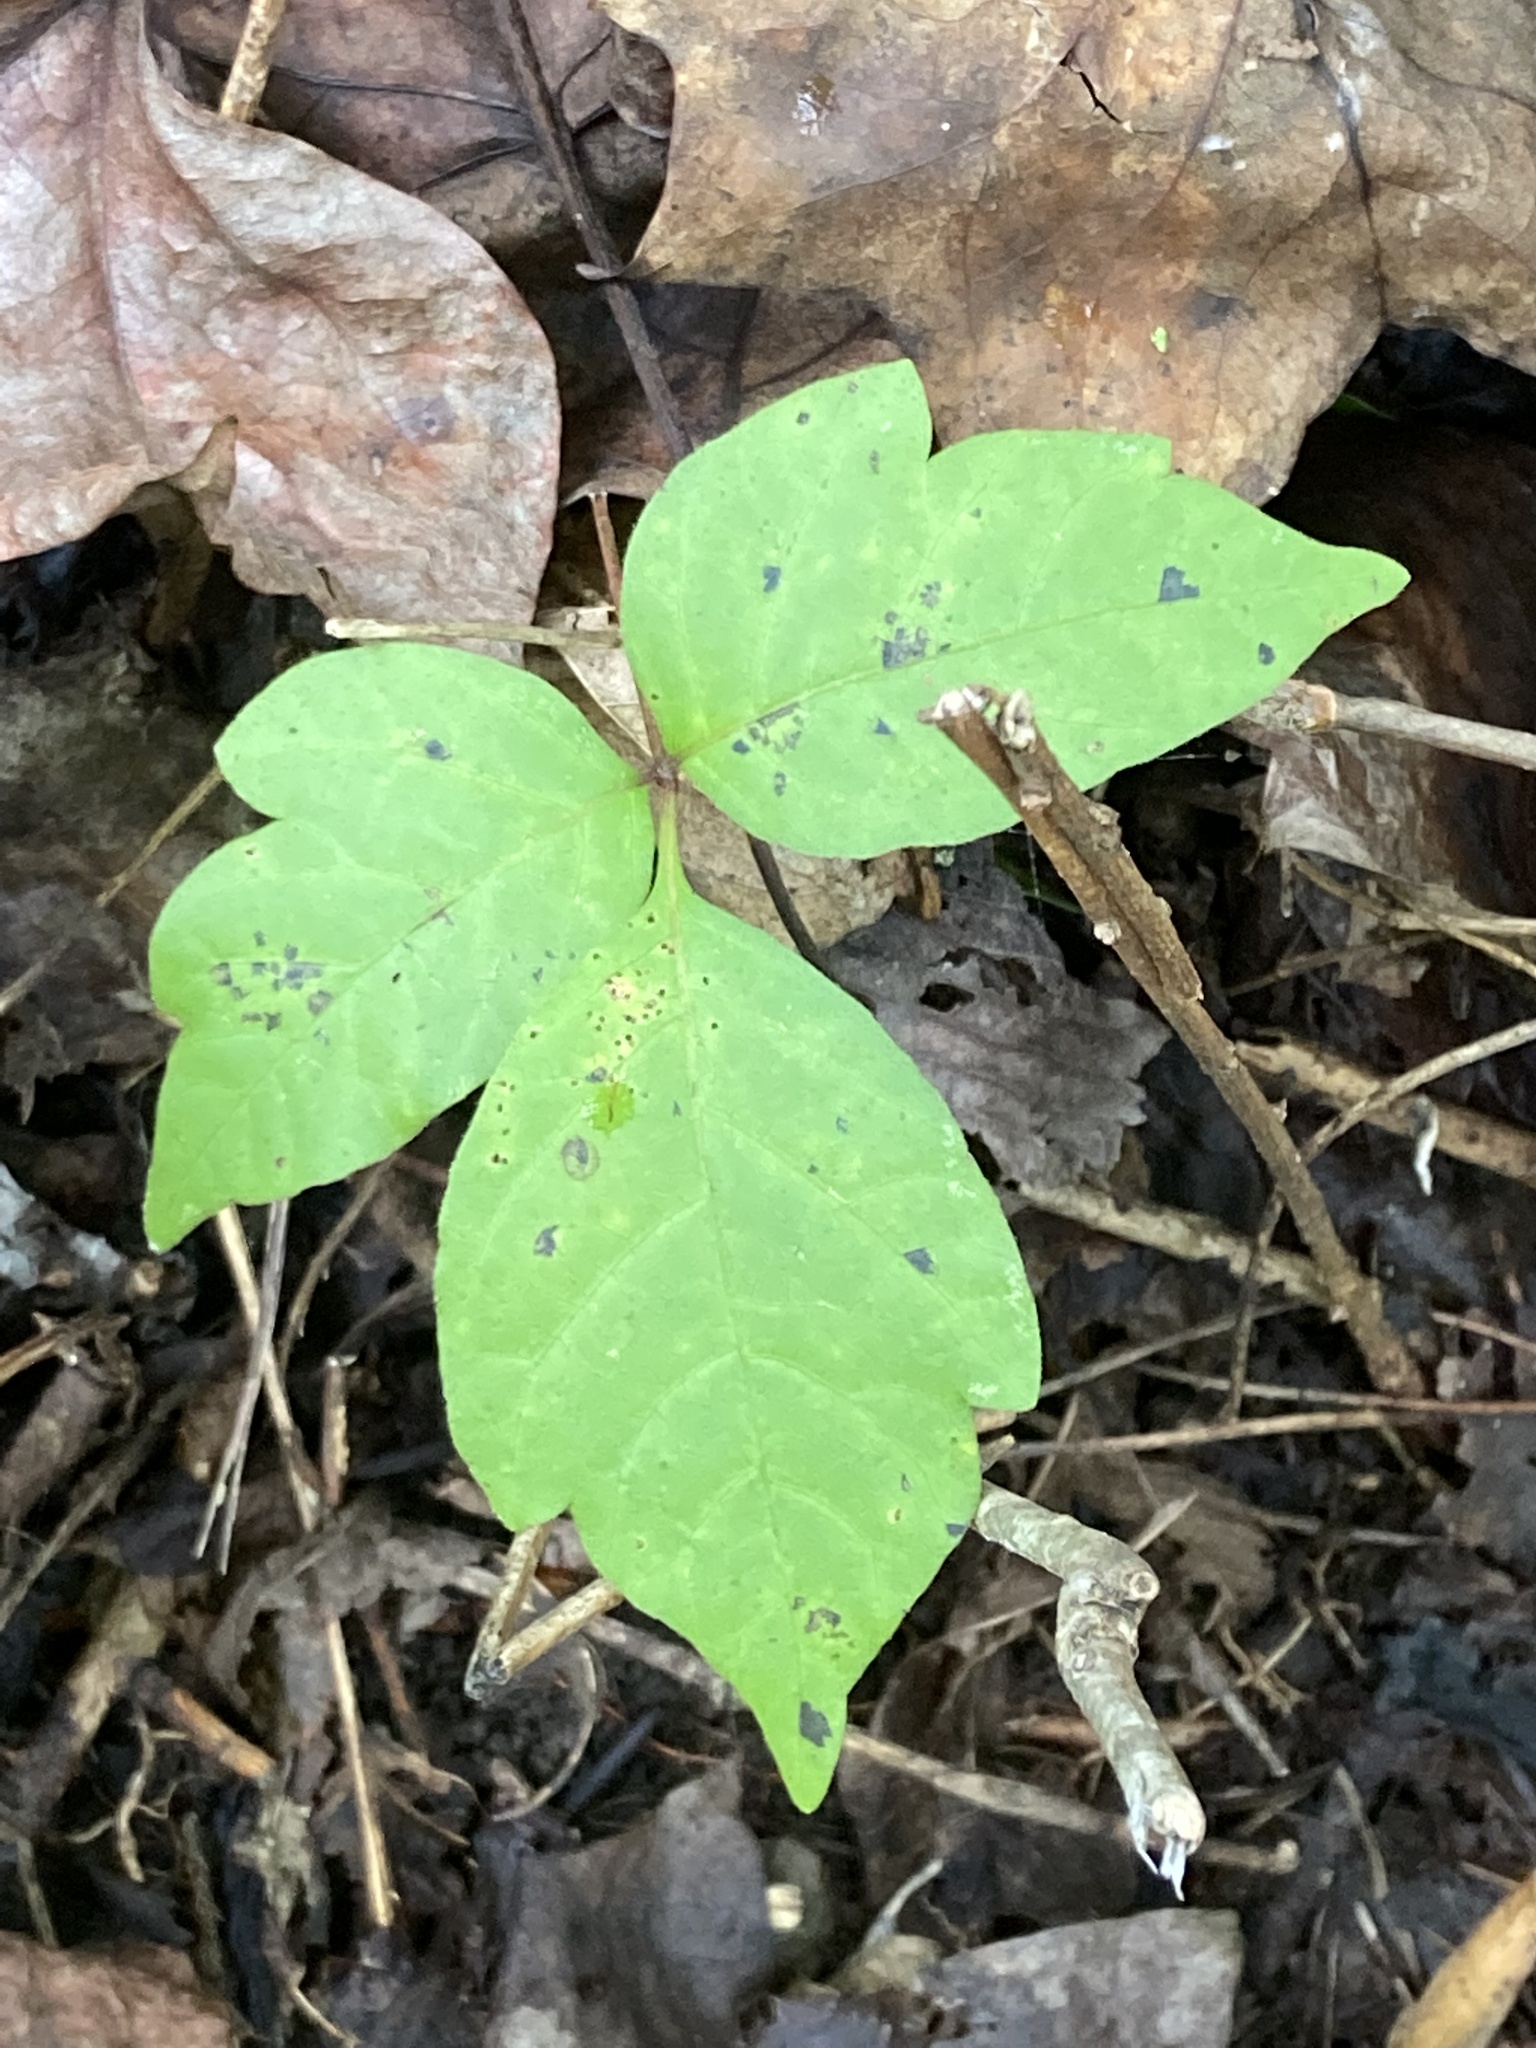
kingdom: Plantae
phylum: Tracheophyta
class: Magnoliopsida
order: Sapindales
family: Anacardiaceae
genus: Toxicodendron
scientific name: Toxicodendron radicans
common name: Poison ivy
